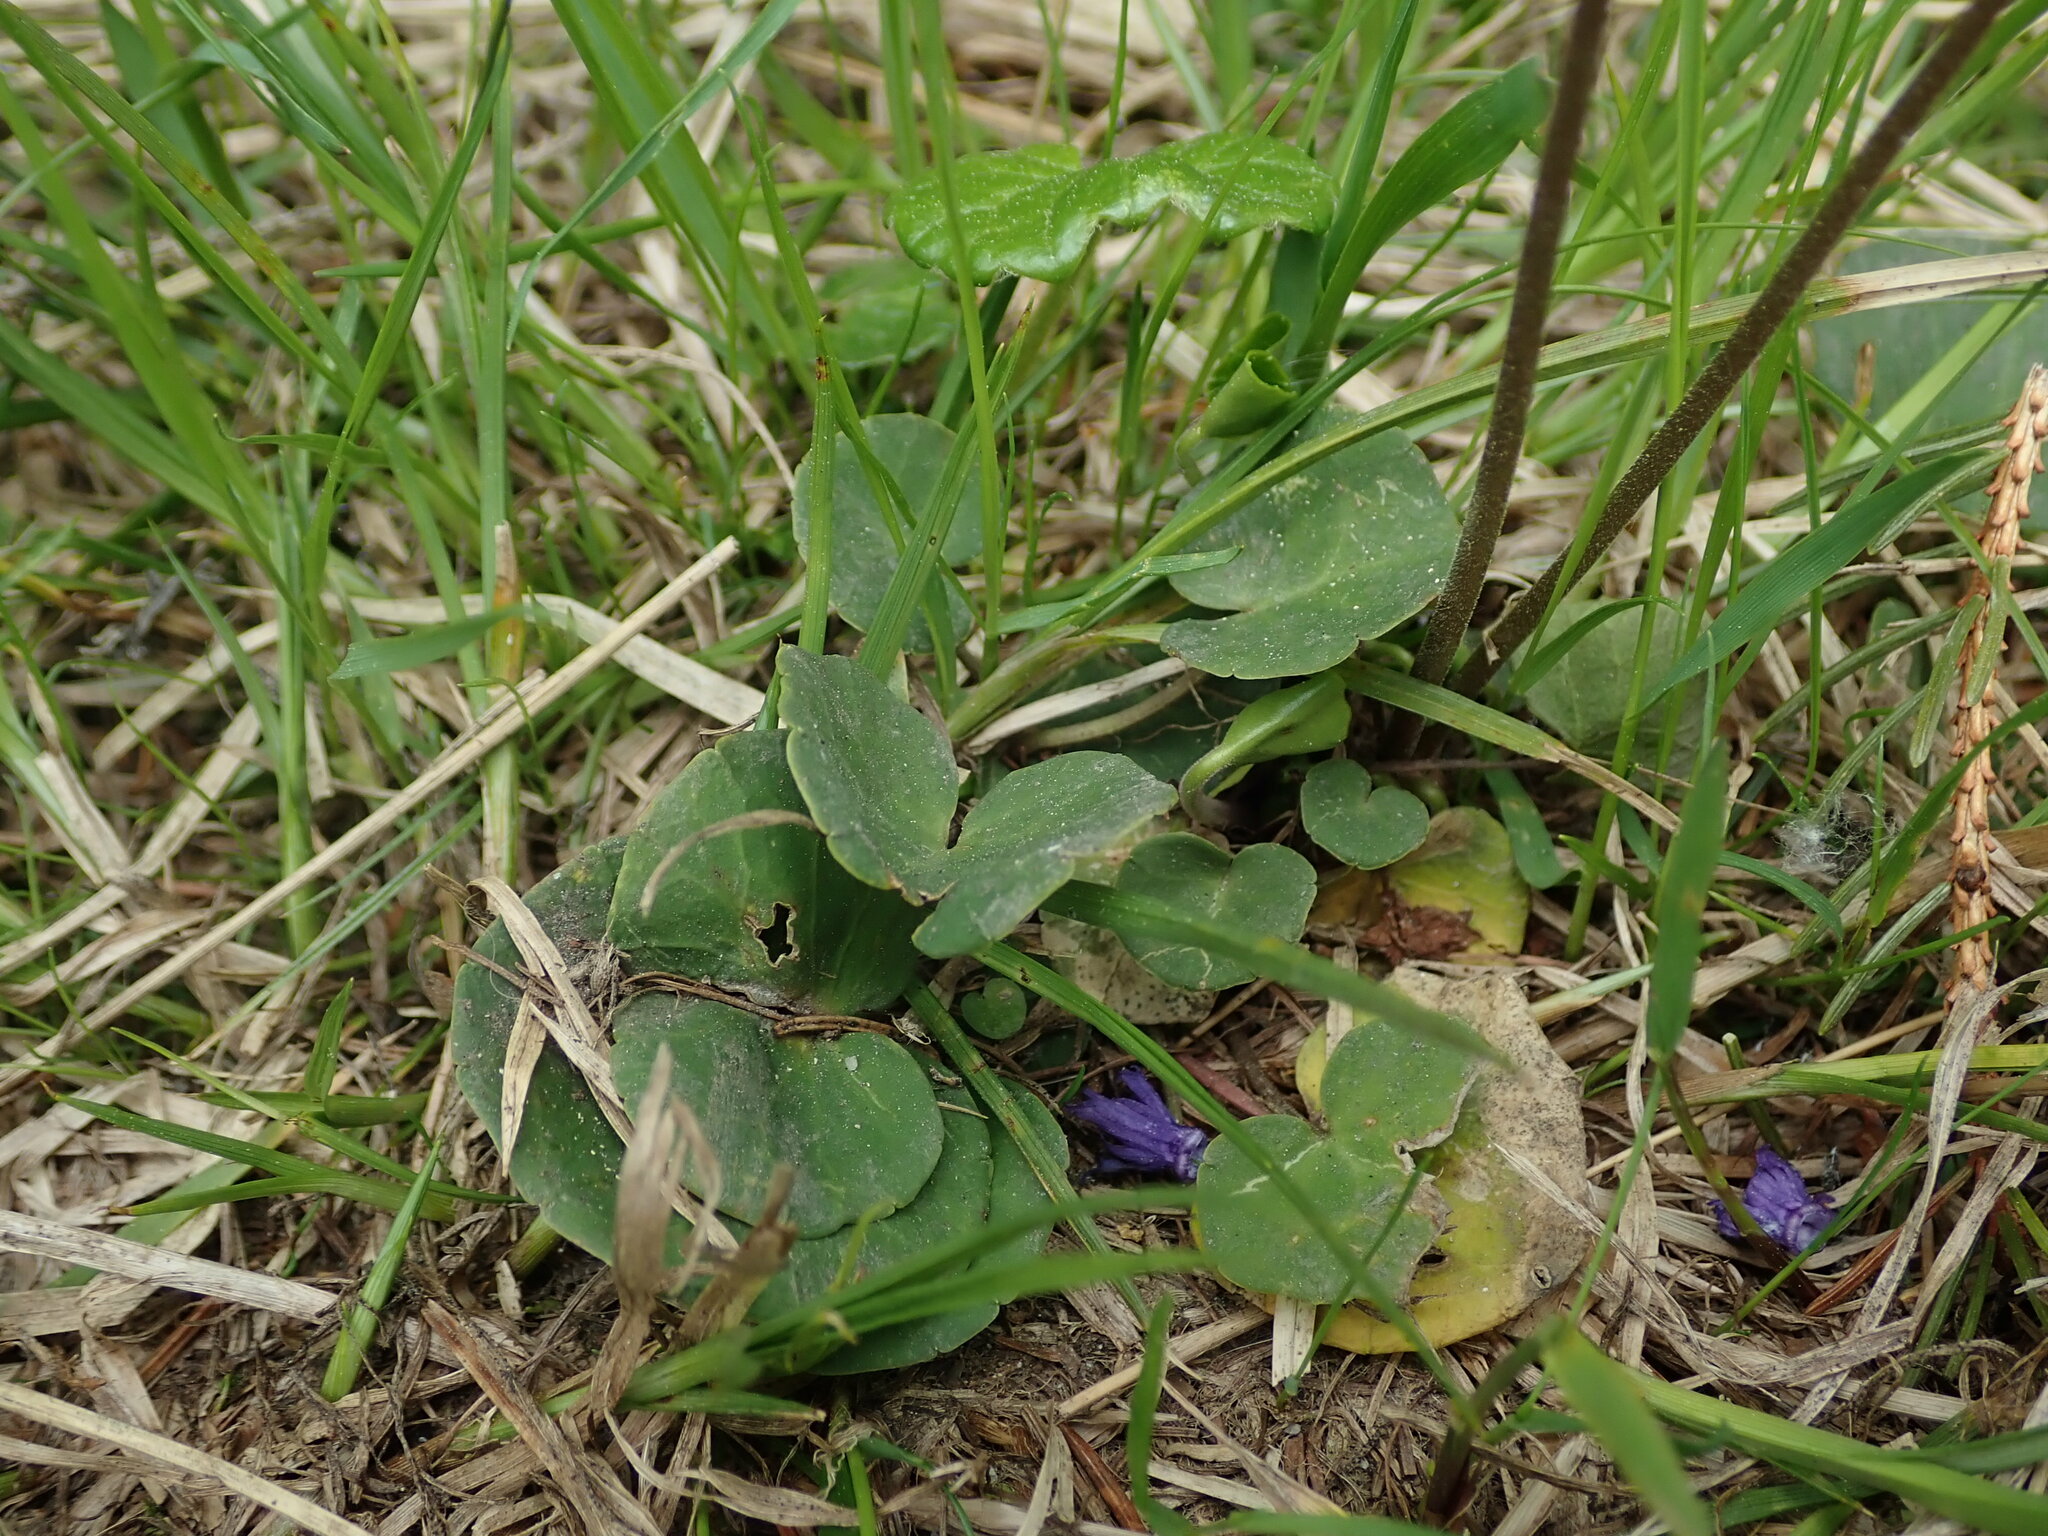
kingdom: Plantae
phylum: Tracheophyta
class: Magnoliopsida
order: Ericales
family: Primulaceae
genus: Soldanella
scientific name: Soldanella carpatica
